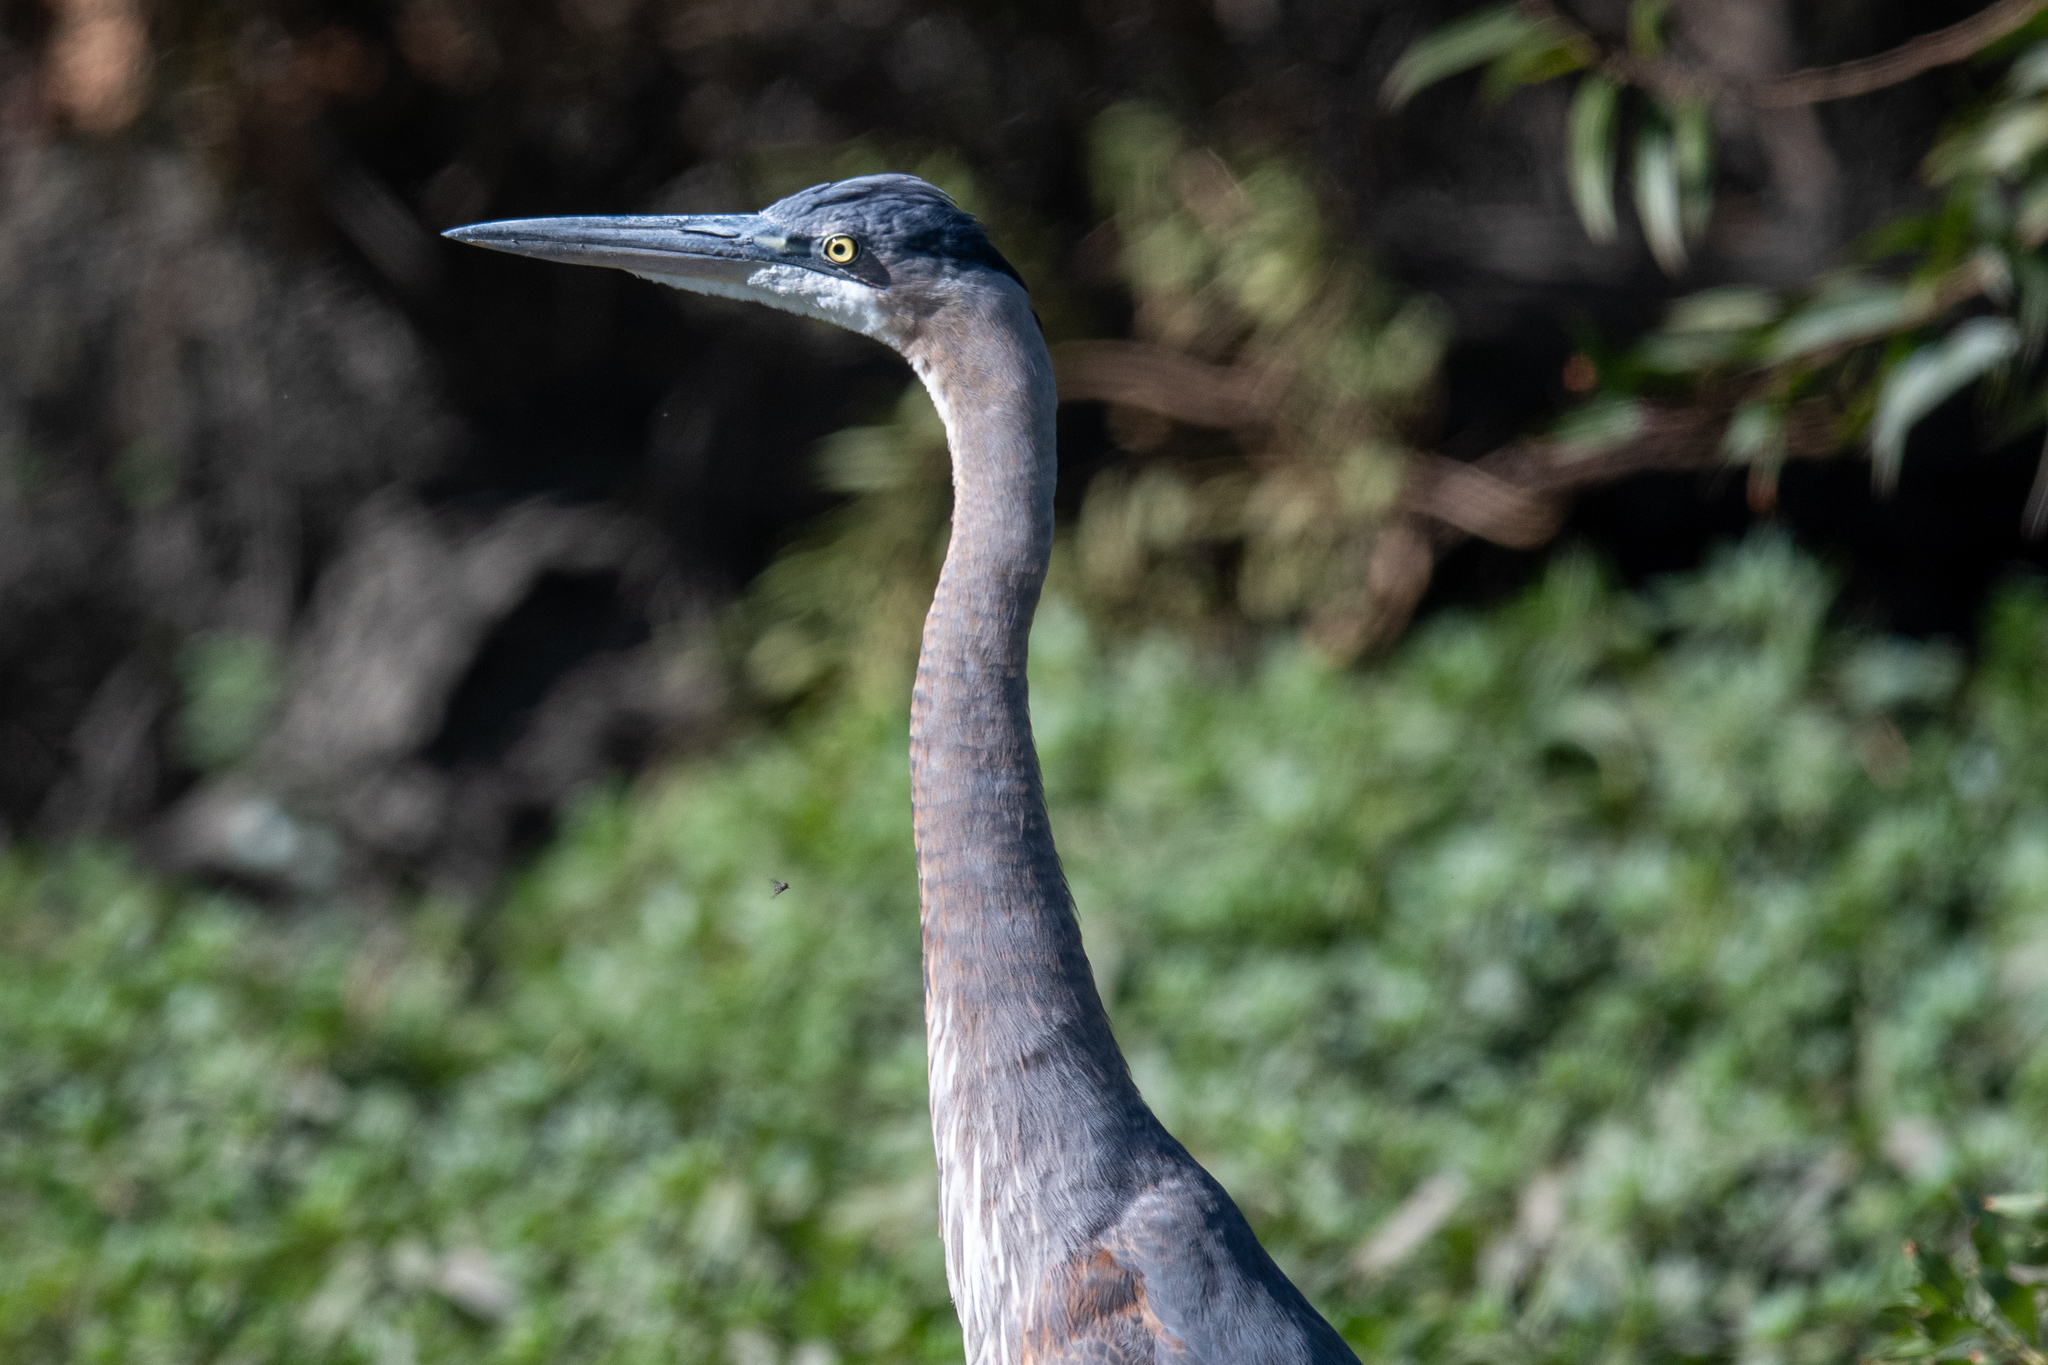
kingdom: Animalia
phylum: Chordata
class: Aves
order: Pelecaniformes
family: Ardeidae
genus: Ardea
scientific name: Ardea herodias
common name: Great blue heron
